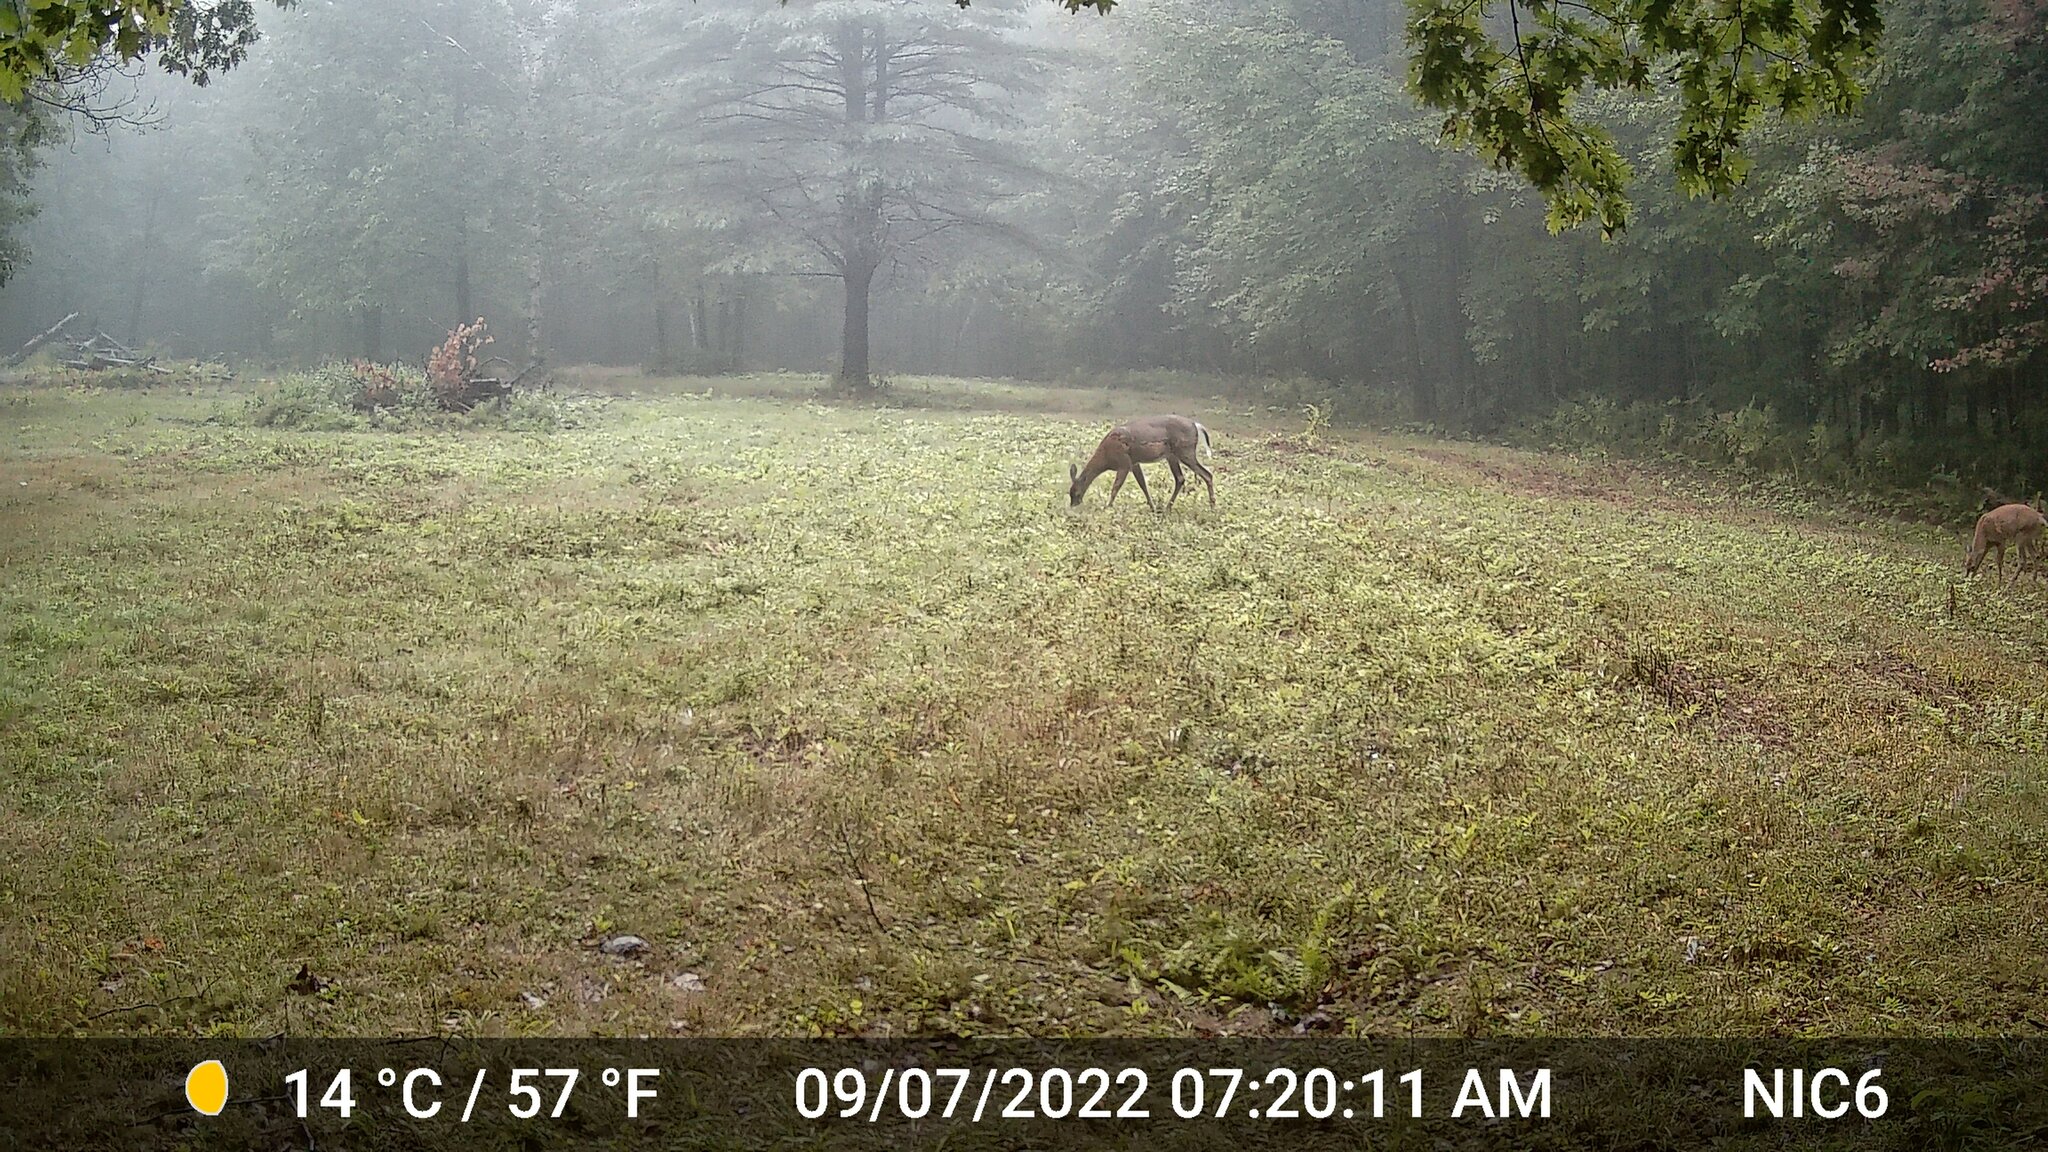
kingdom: Animalia
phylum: Chordata
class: Mammalia
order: Artiodactyla
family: Cervidae
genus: Odocoileus
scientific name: Odocoileus virginianus
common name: White-tailed deer
